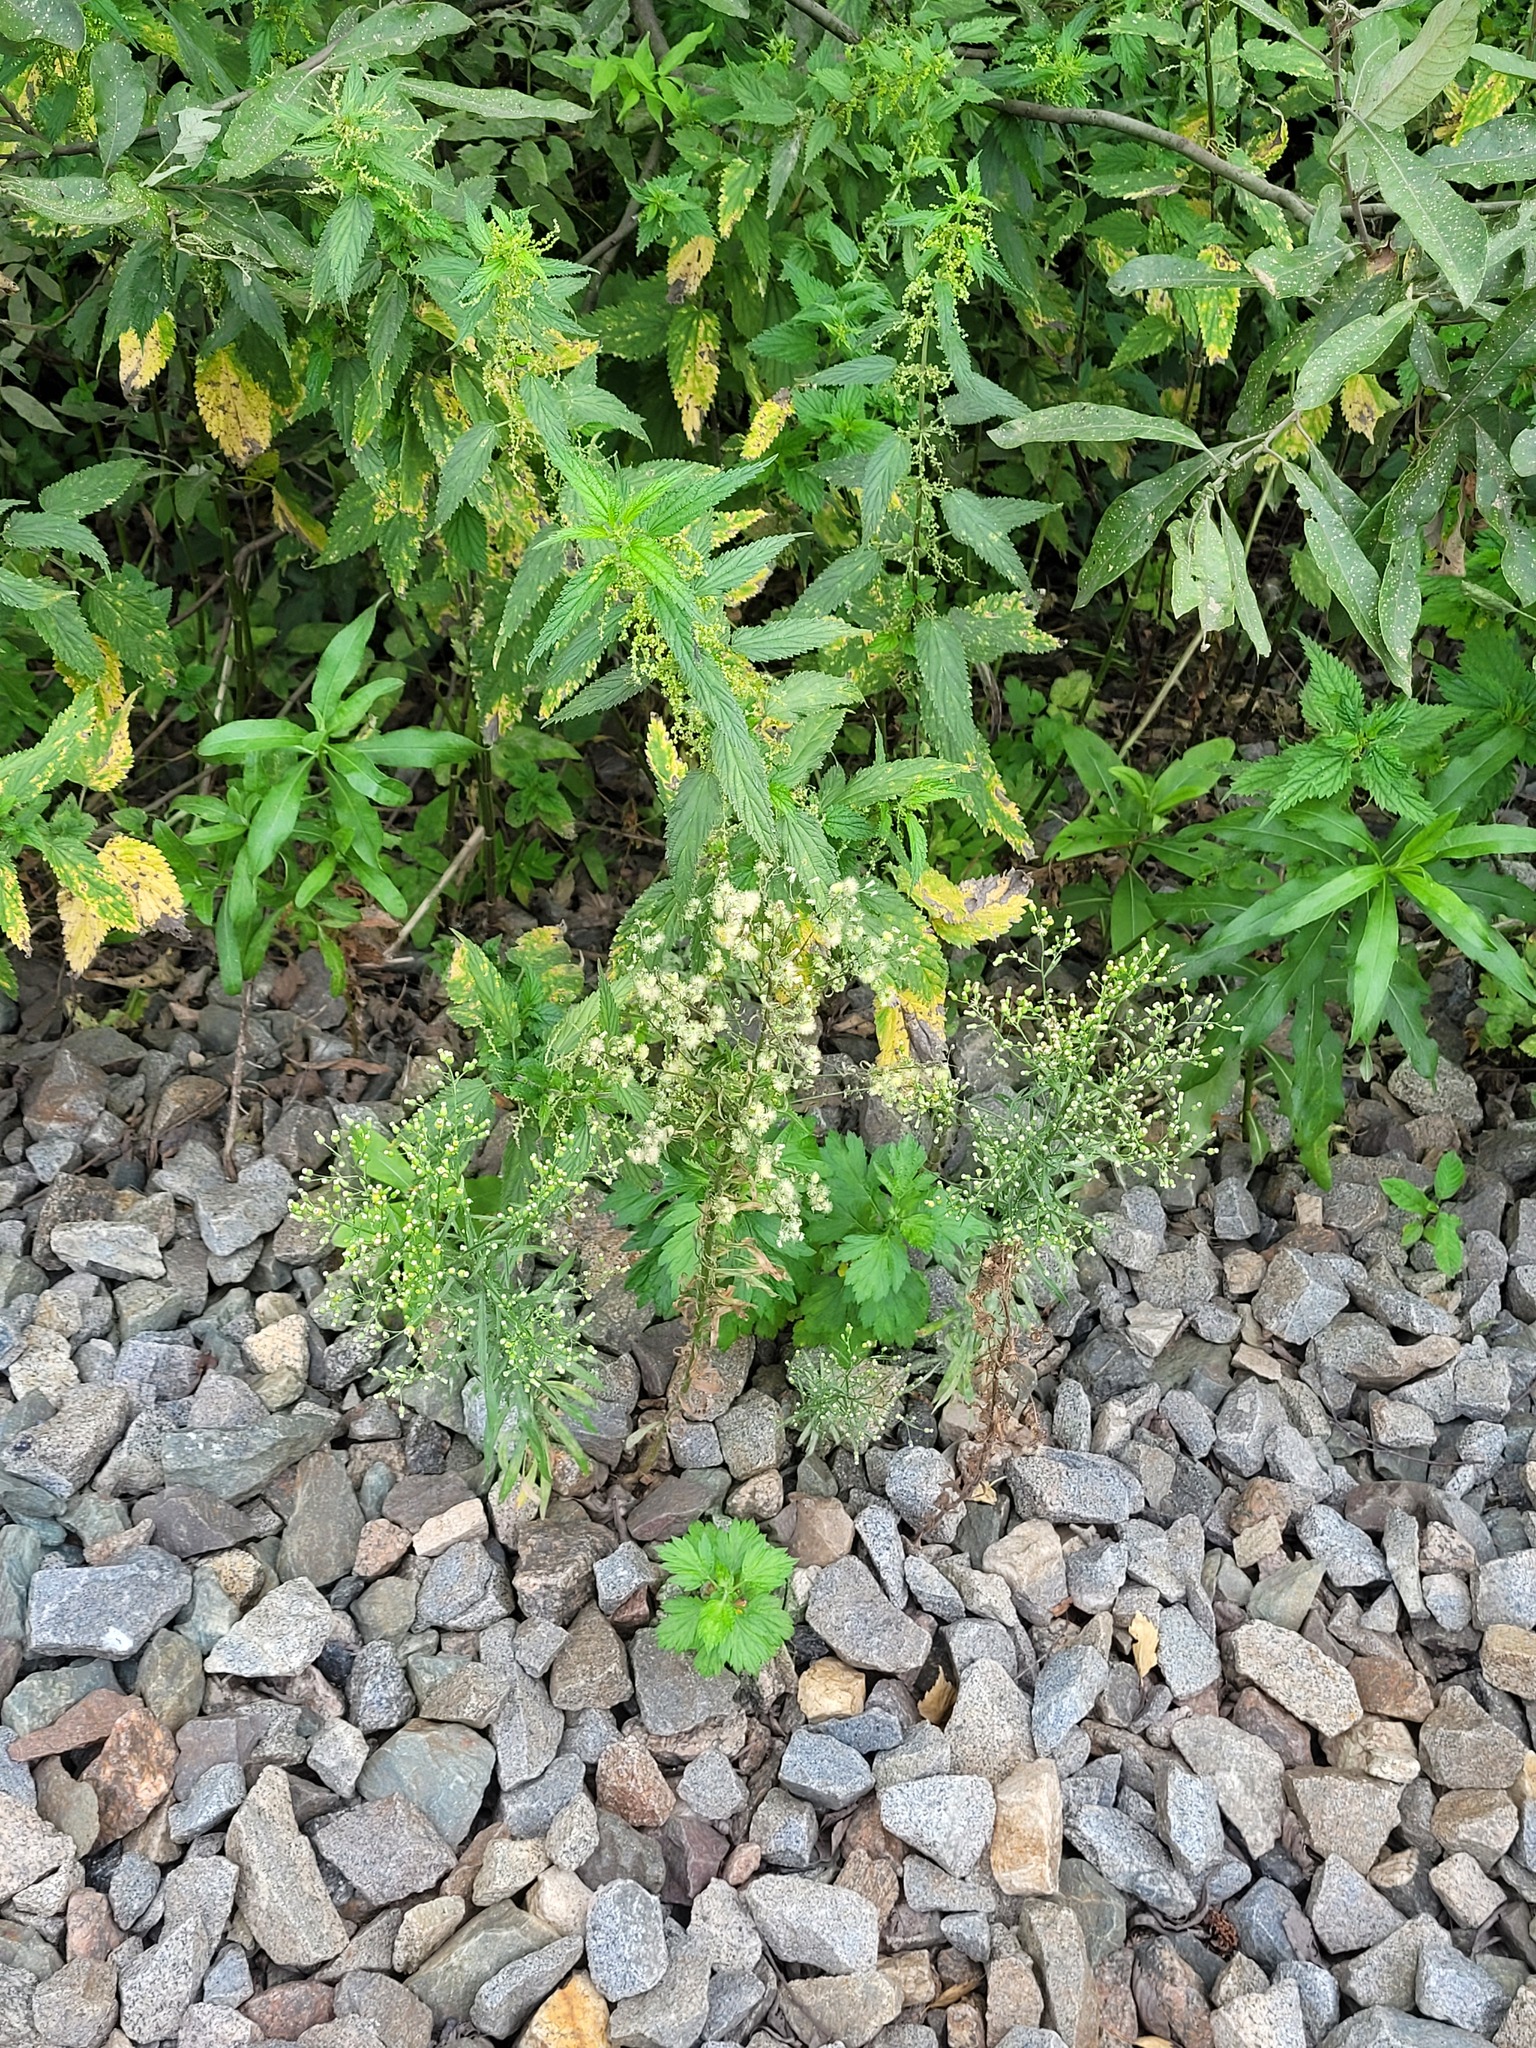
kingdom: Plantae
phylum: Tracheophyta
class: Magnoliopsida
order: Asterales
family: Asteraceae
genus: Erigeron
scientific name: Erigeron canadensis
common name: Canadian fleabane
